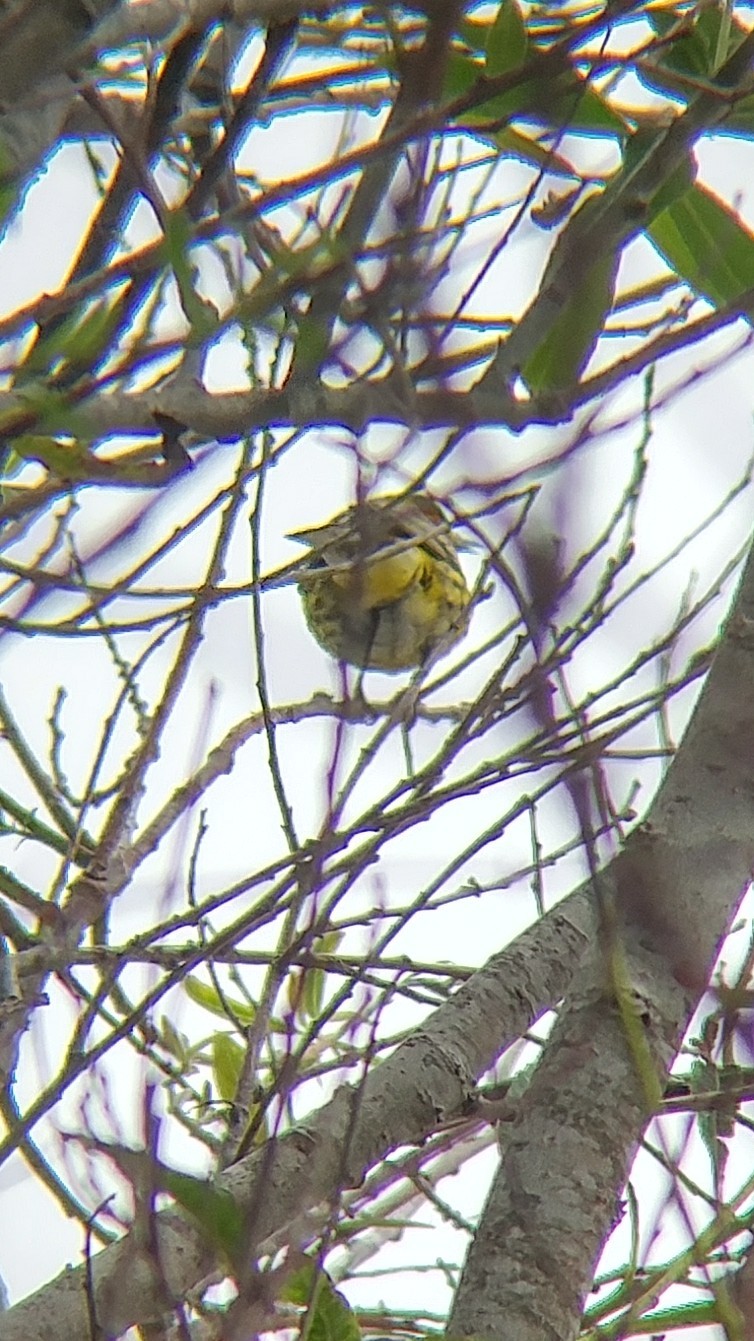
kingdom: Animalia
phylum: Chordata
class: Aves
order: Passeriformes
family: Parulidae
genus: Setophaga
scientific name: Setophaga tigrina
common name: Cape may warbler
